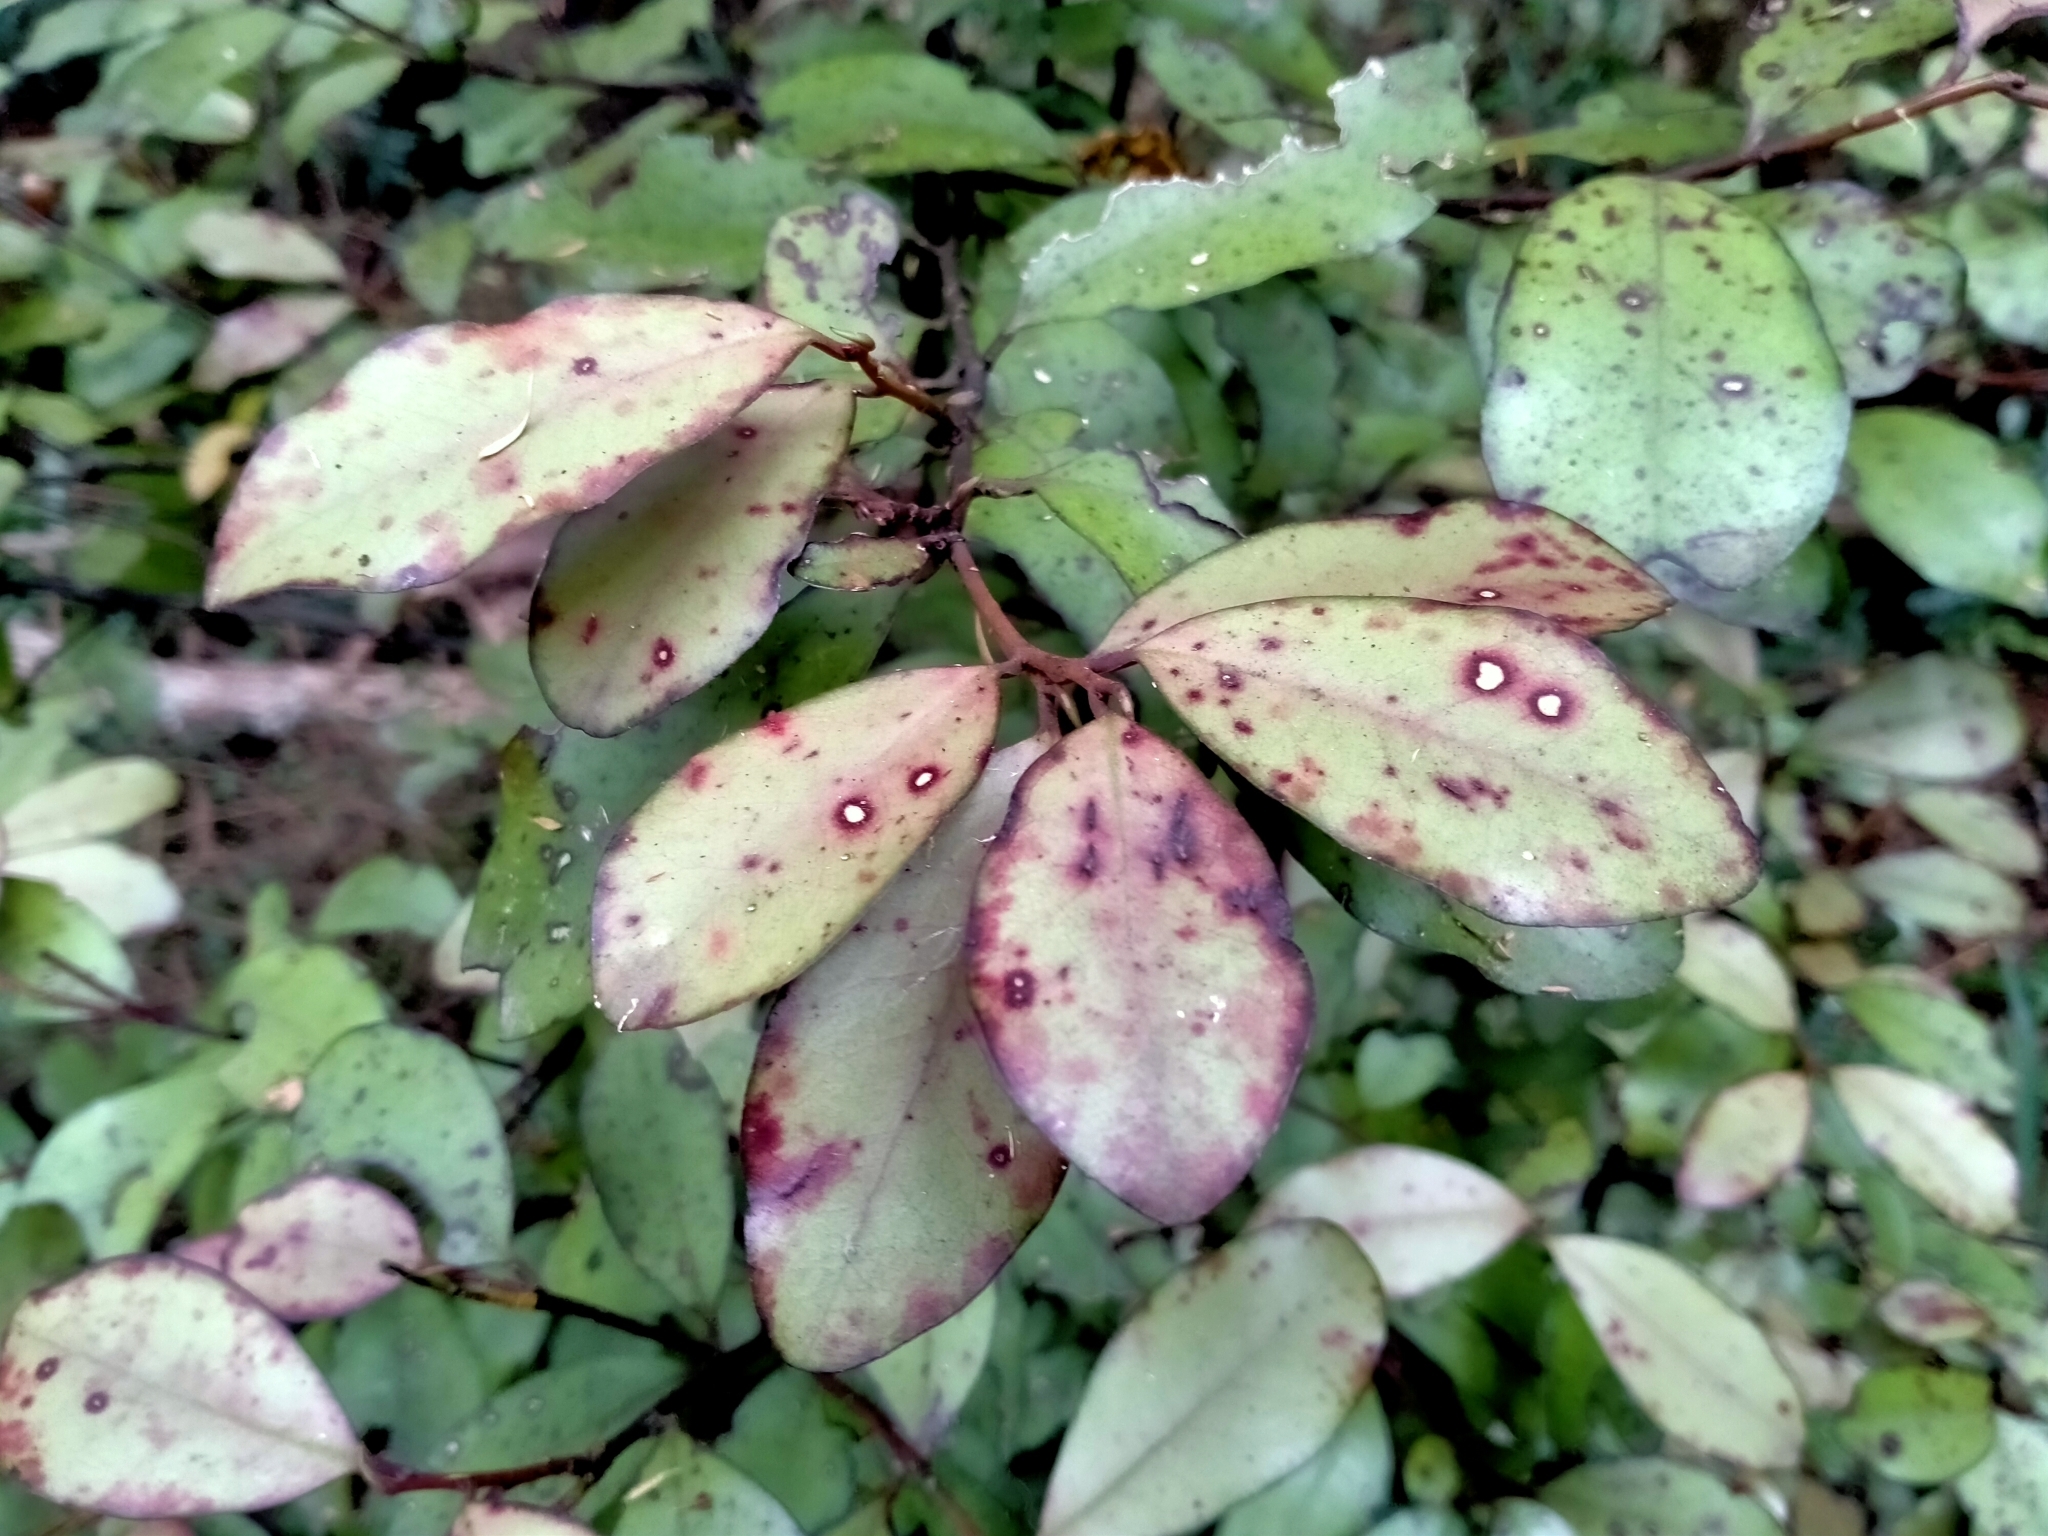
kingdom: Plantae
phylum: Tracheophyta
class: Magnoliopsida
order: Canellales
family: Winteraceae
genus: Pseudowintera
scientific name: Pseudowintera colorata
